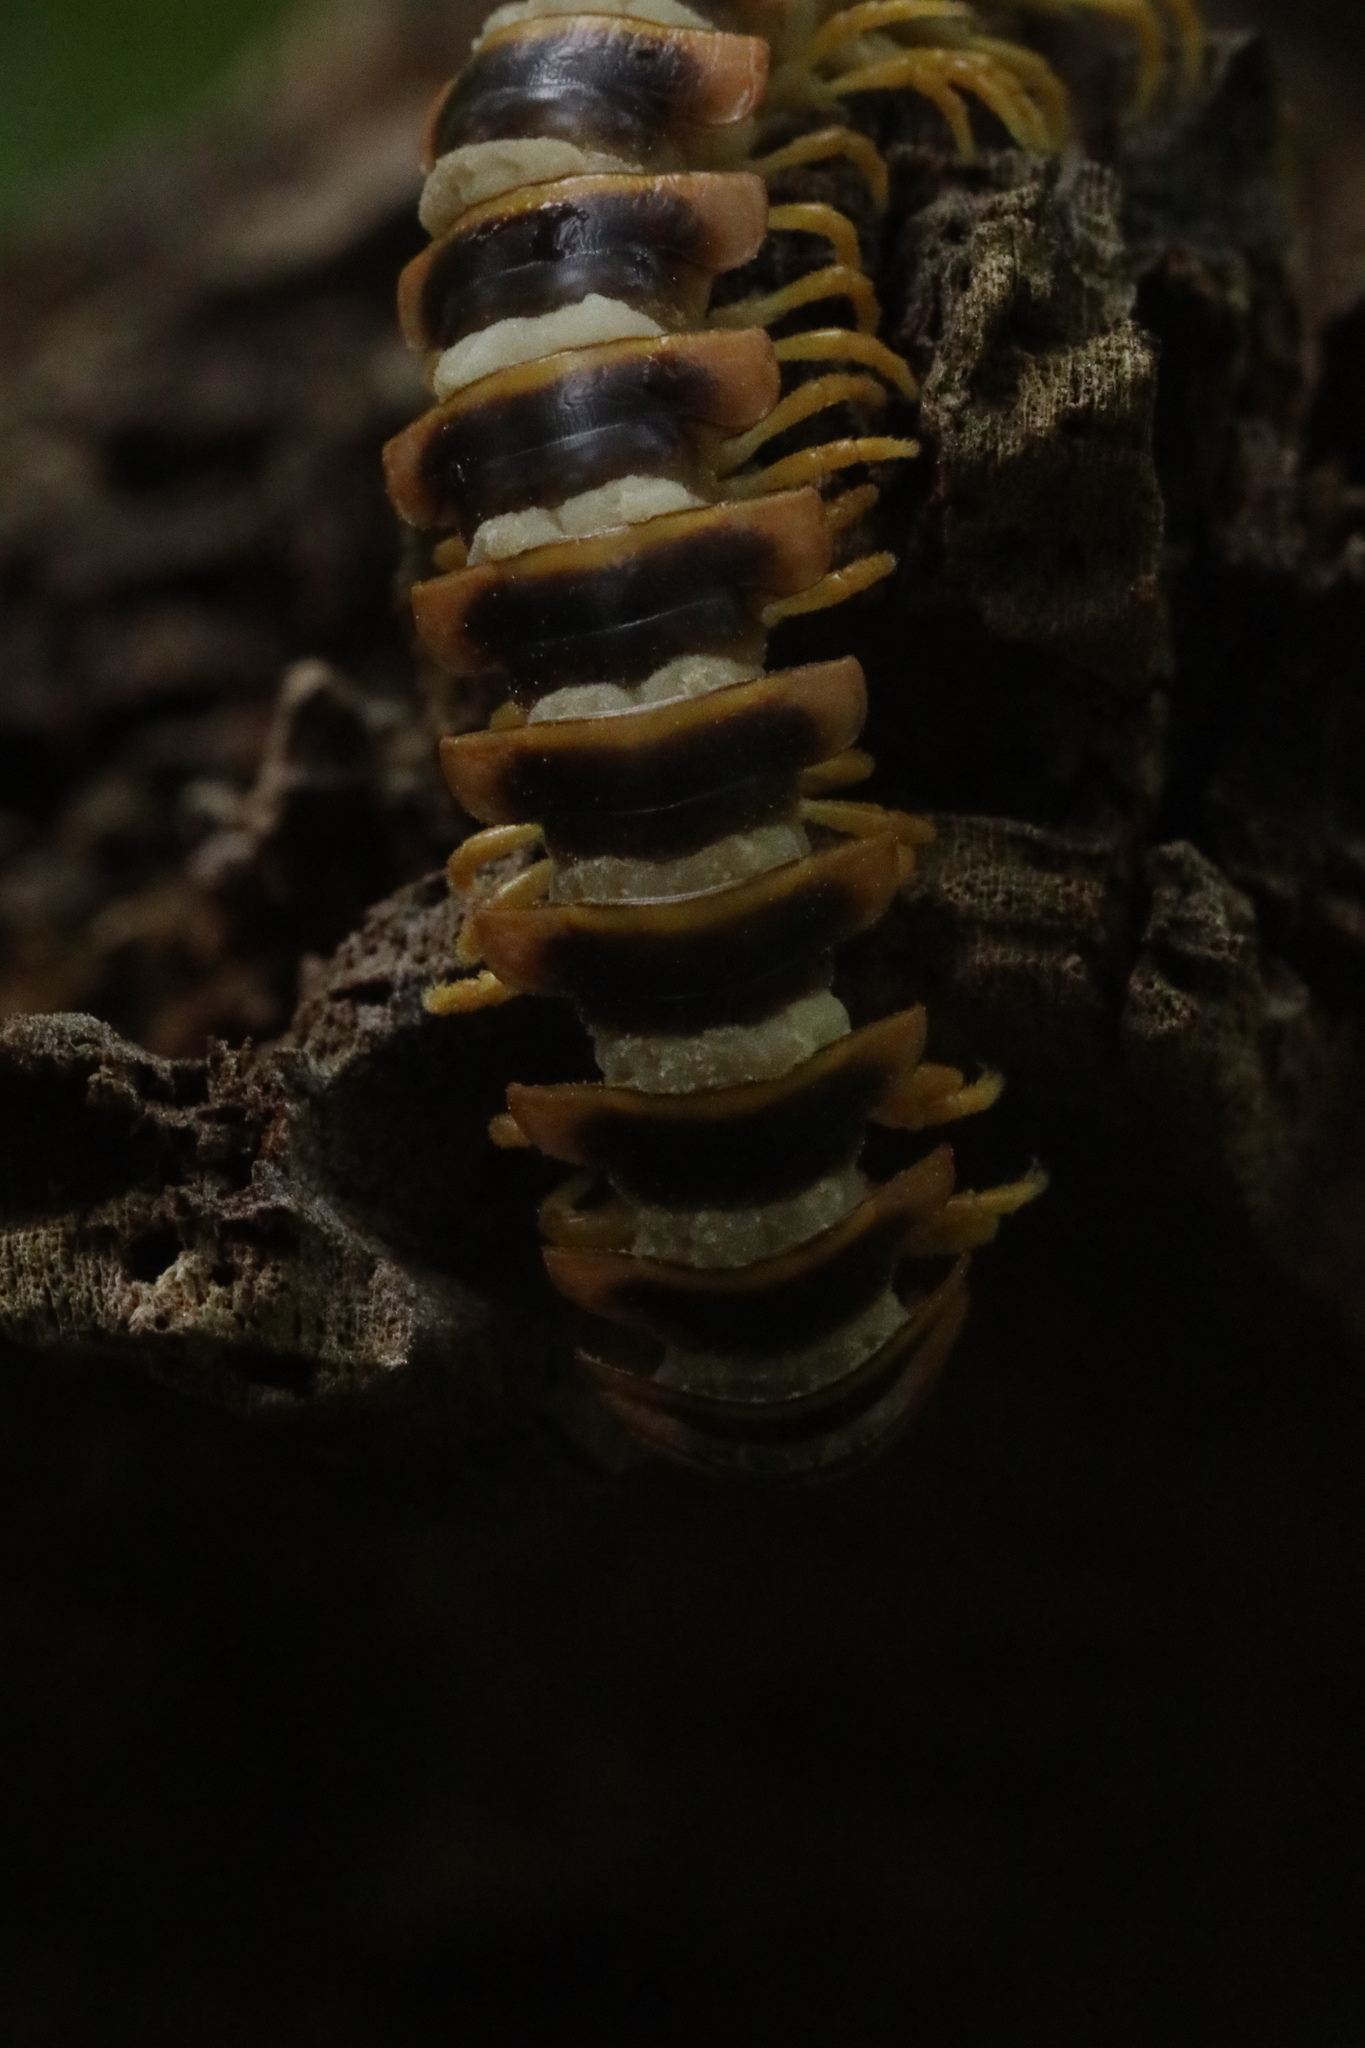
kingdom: Fungi
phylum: Entomophthoromycota
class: Entomophthoromycetes
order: Entomophthorales
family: Entomophthoraceae
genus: Arthrophaga
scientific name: Arthrophaga myriapodina
